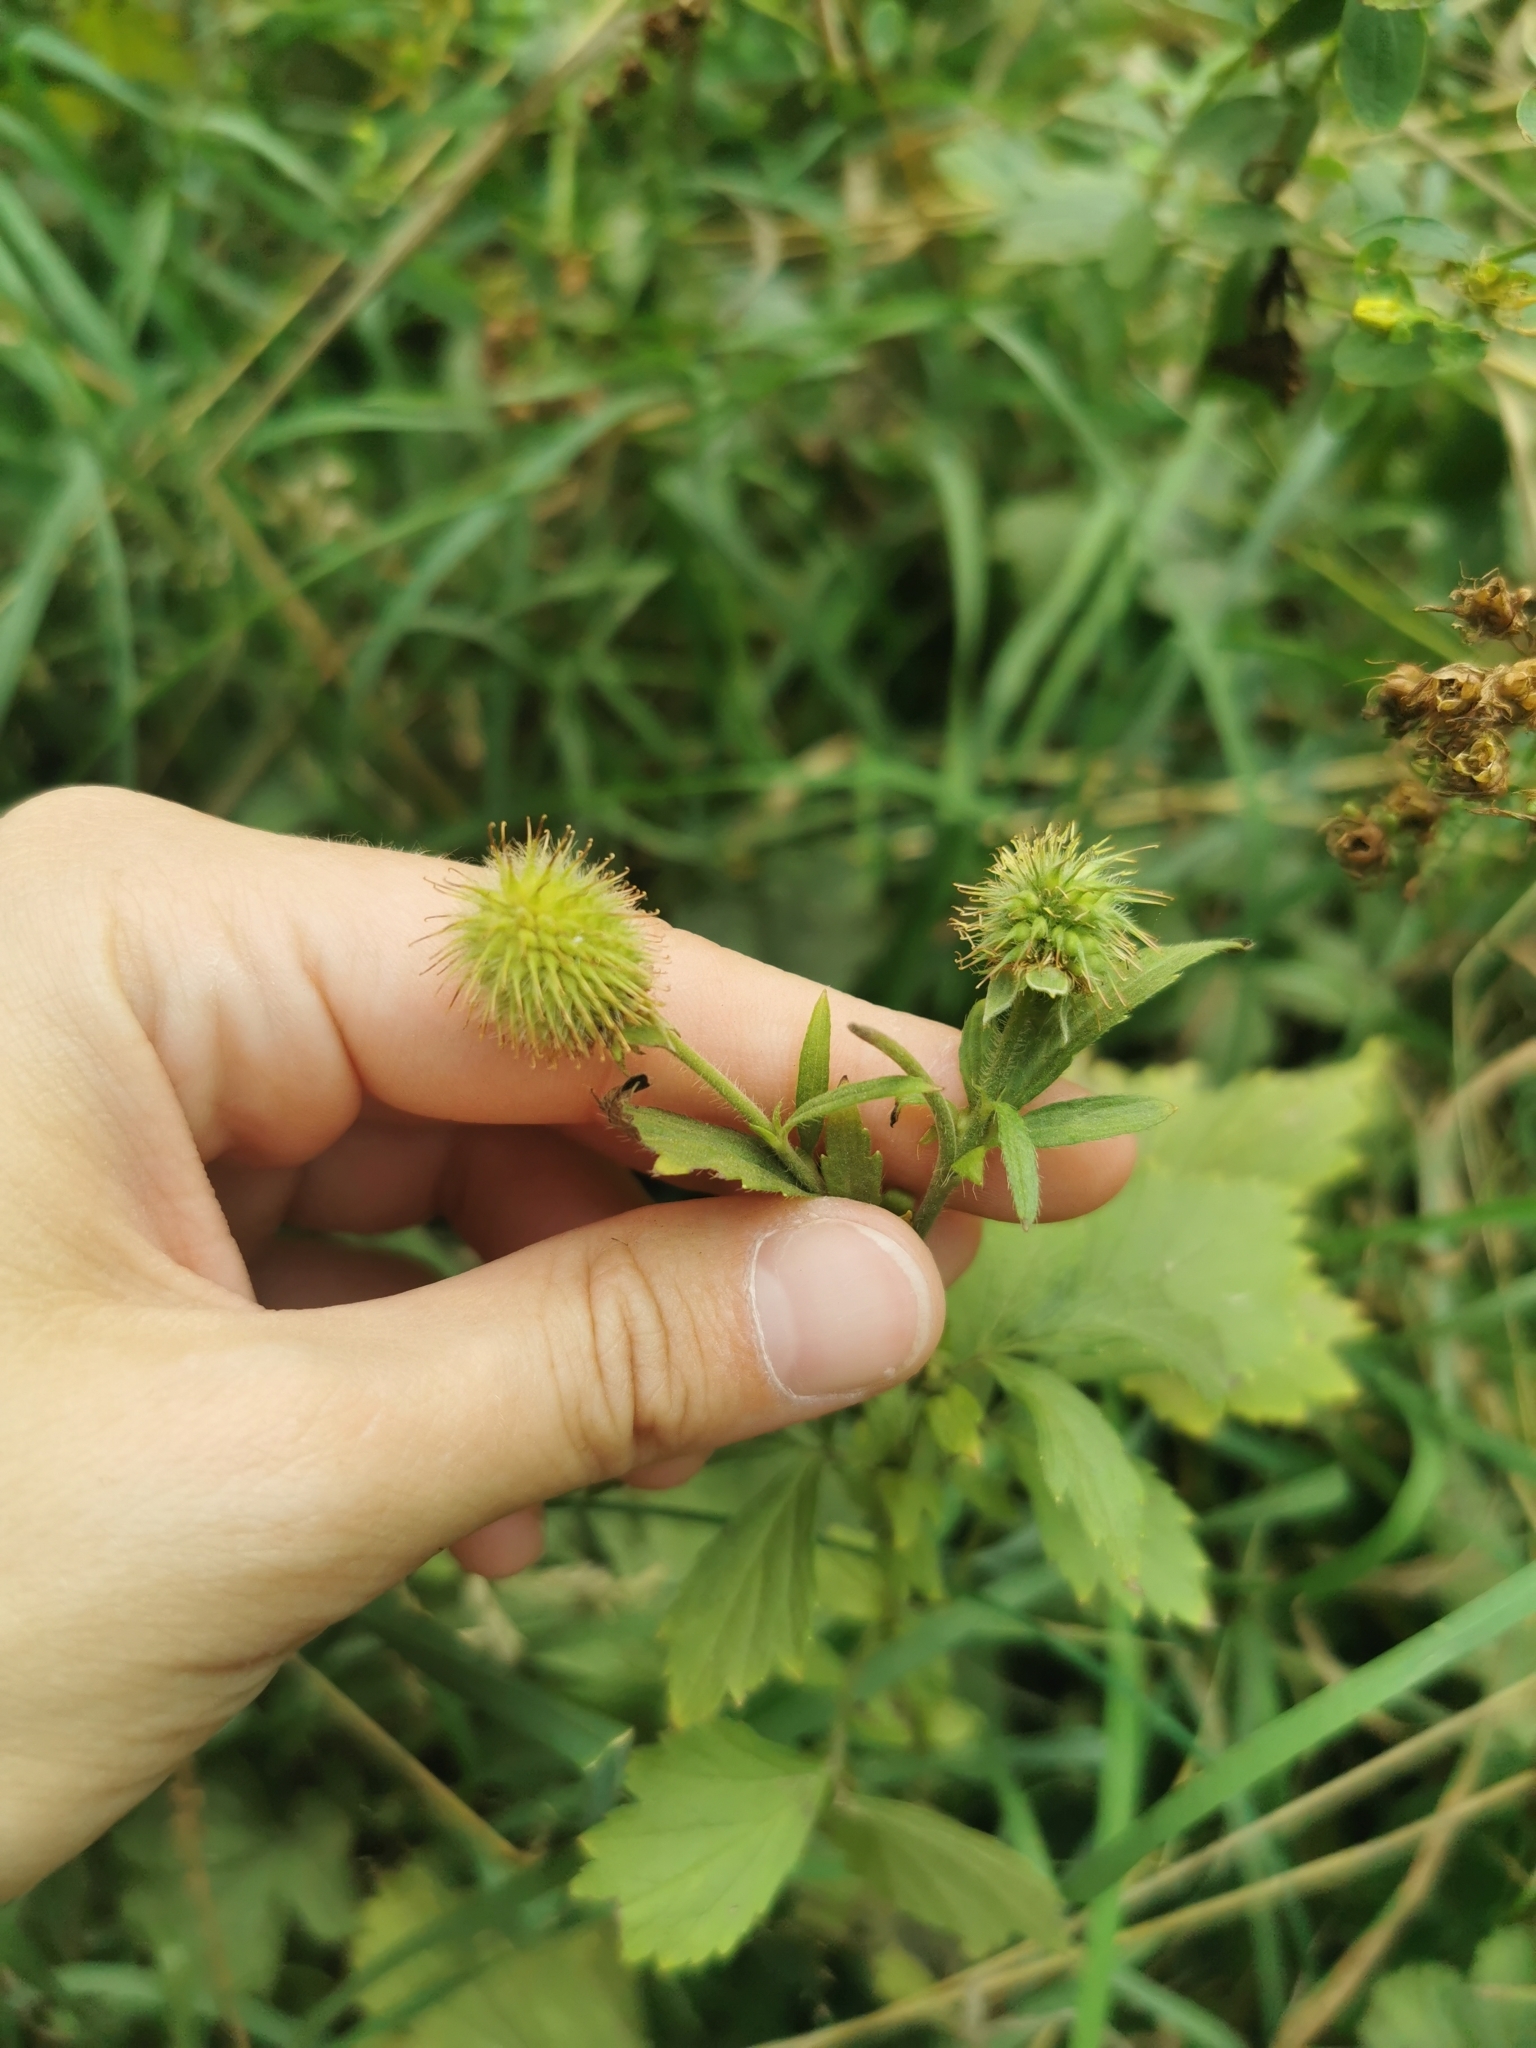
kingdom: Plantae
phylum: Tracheophyta
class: Magnoliopsida
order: Rosales
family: Rosaceae
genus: Geum
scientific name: Geum aleppicum
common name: Yellow avens
